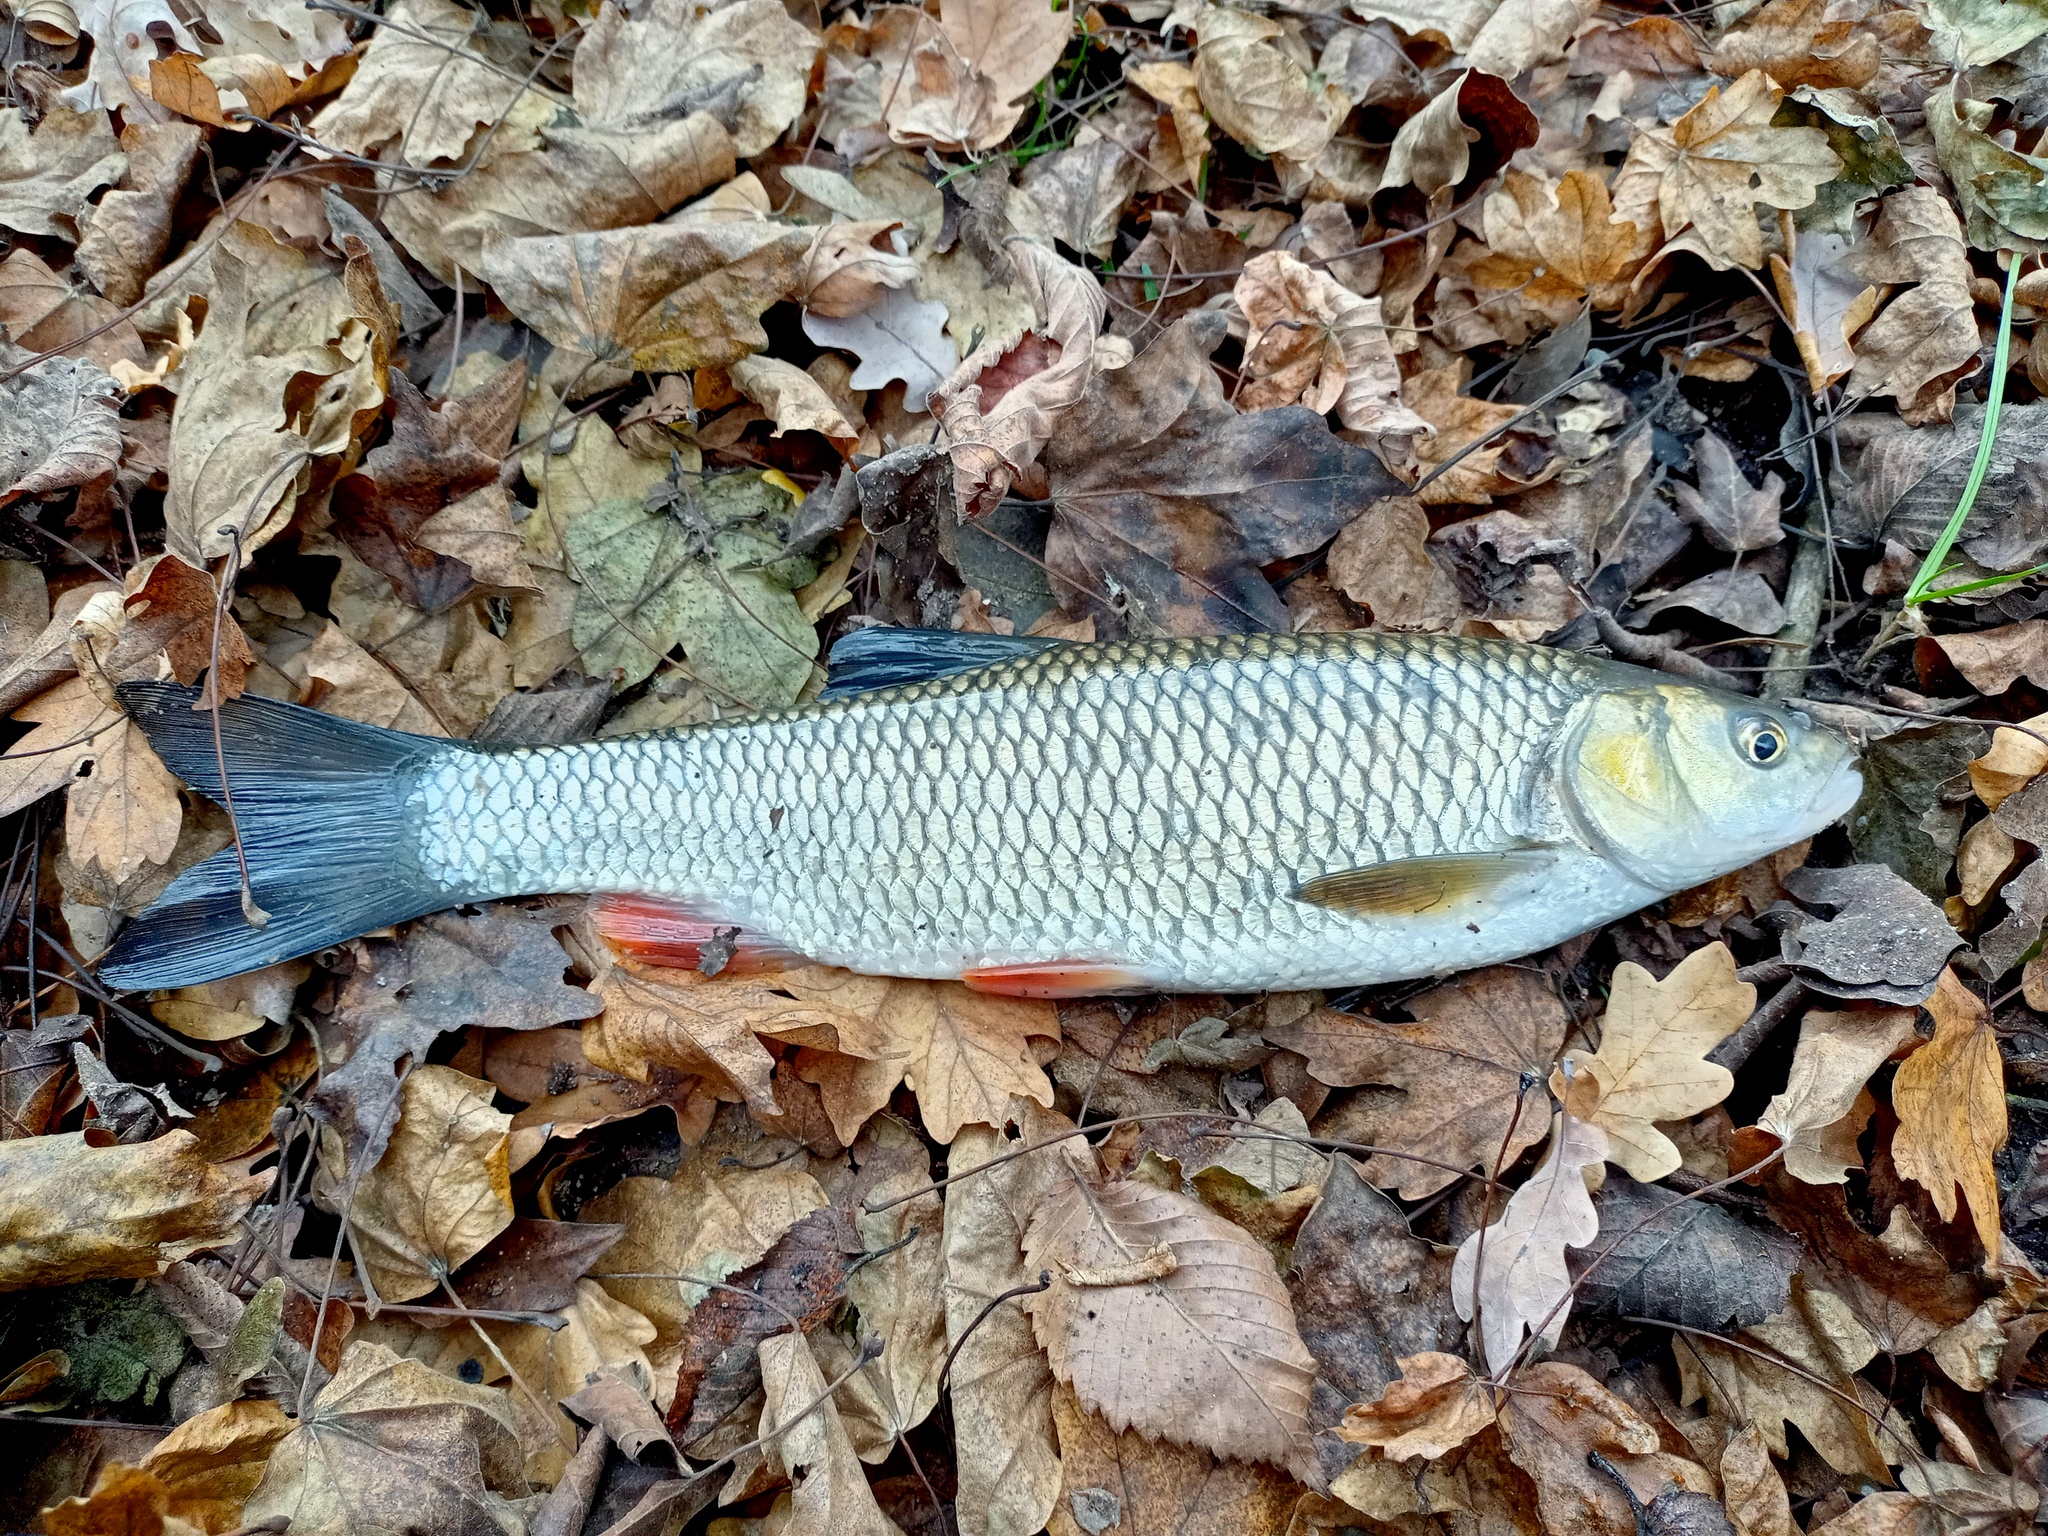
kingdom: Animalia
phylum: Chordata
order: Cypriniformes
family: Cyprinidae
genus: Squalius
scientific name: Squalius cephalus
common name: Chub
